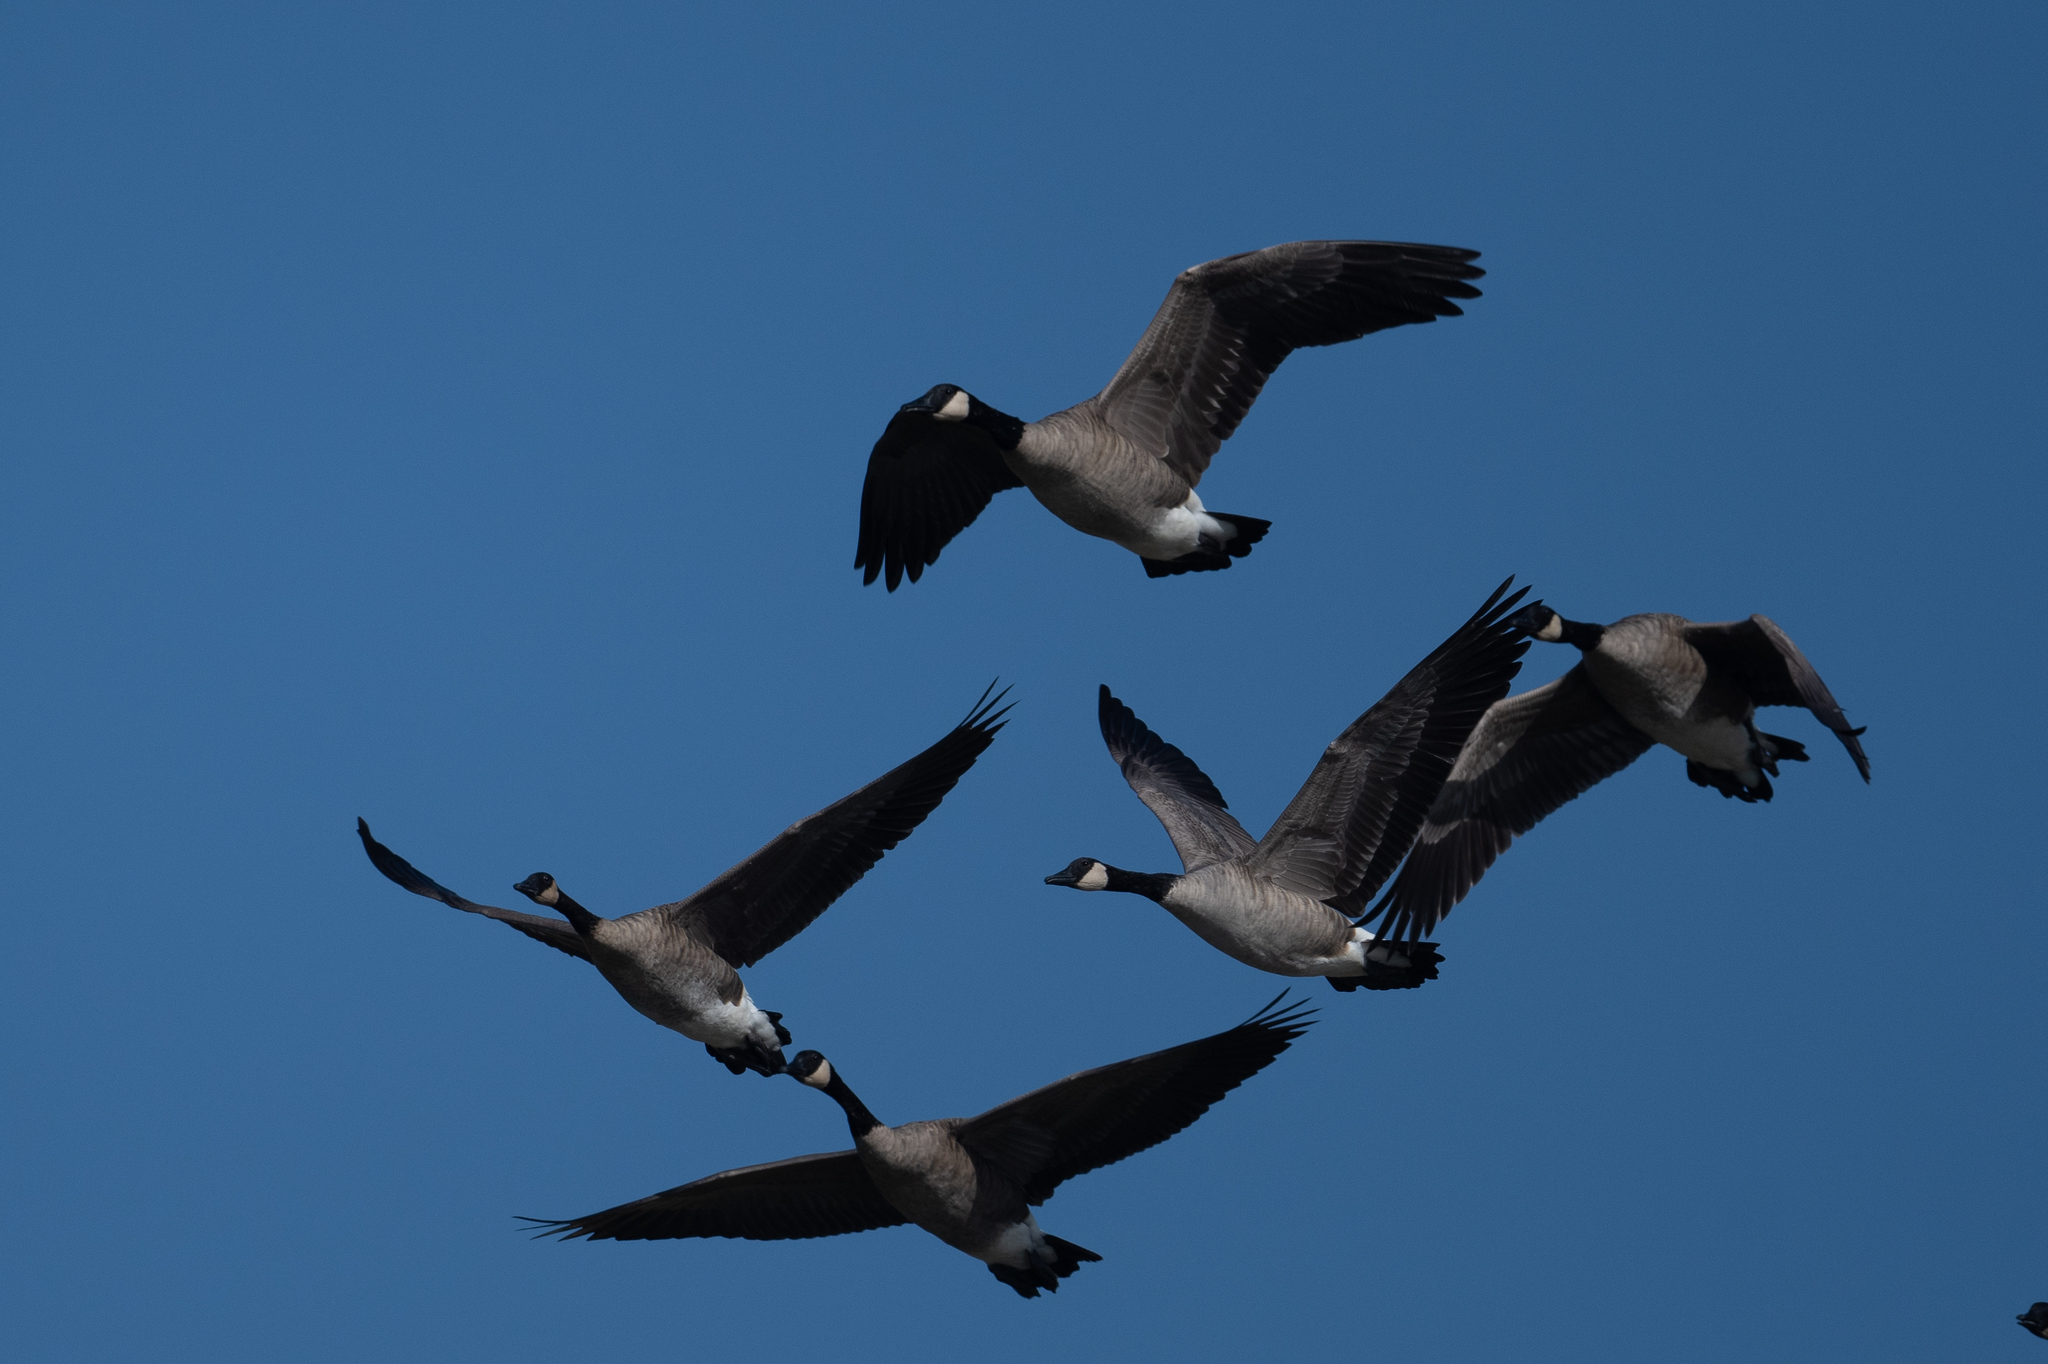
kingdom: Animalia
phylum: Chordata
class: Aves
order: Anseriformes
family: Anatidae
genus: Branta
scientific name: Branta canadensis
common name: Canada goose
